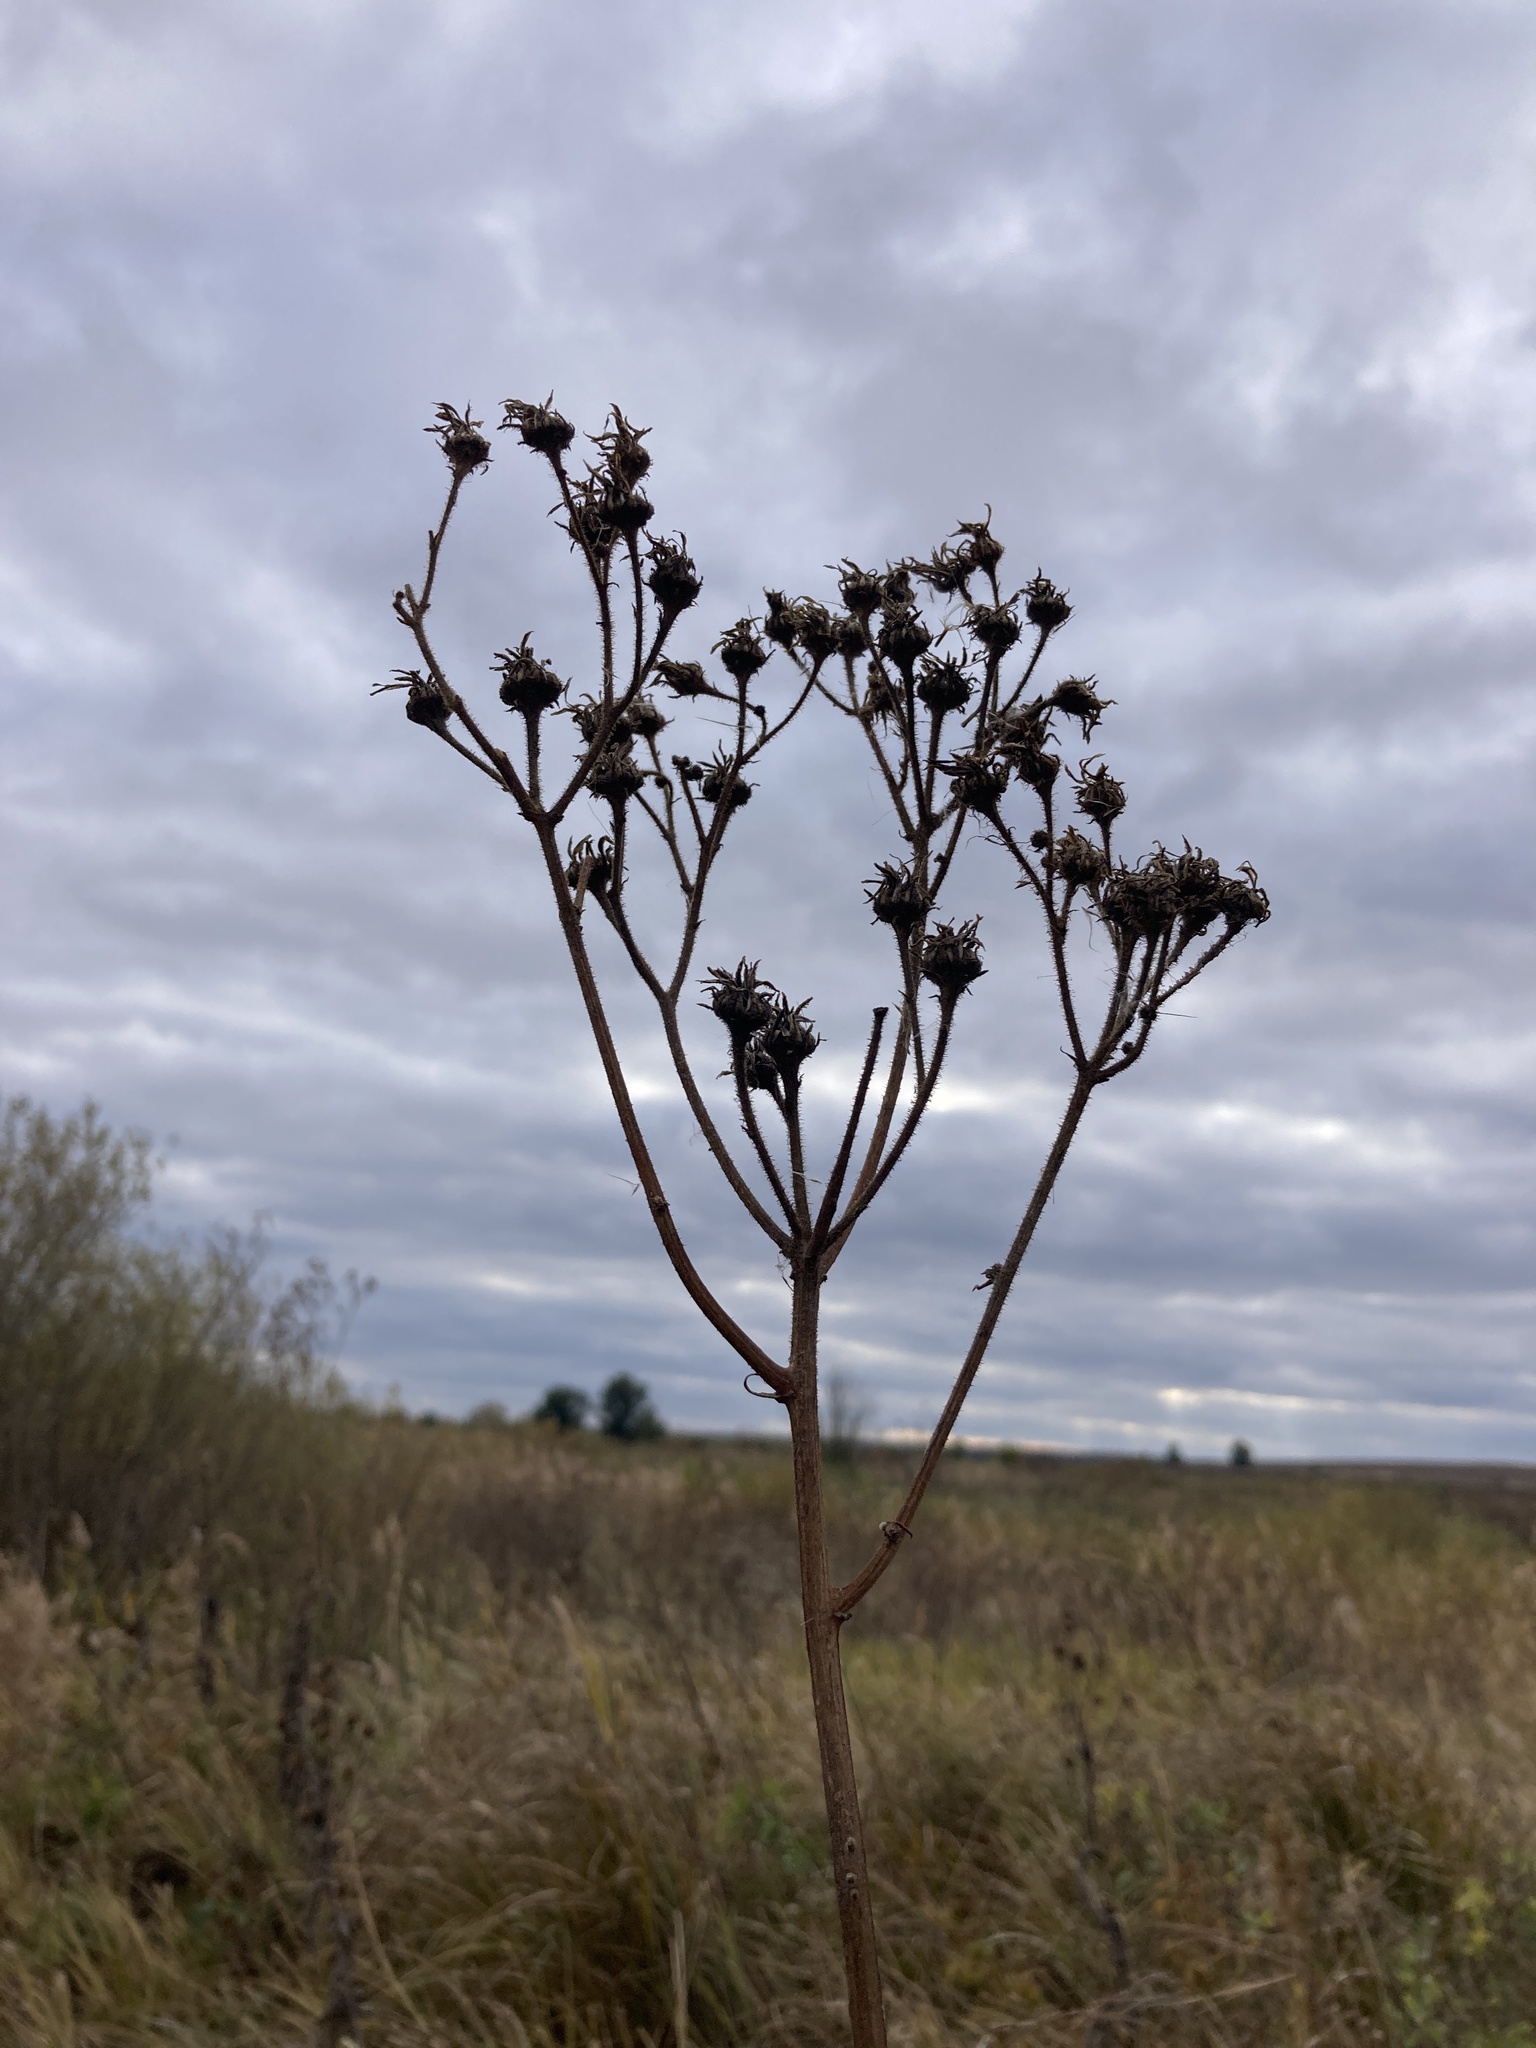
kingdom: Plantae
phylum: Tracheophyta
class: Magnoliopsida
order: Asterales
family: Asteraceae
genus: Sonchus
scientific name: Sonchus palustris
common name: Marsh sow-thistle
